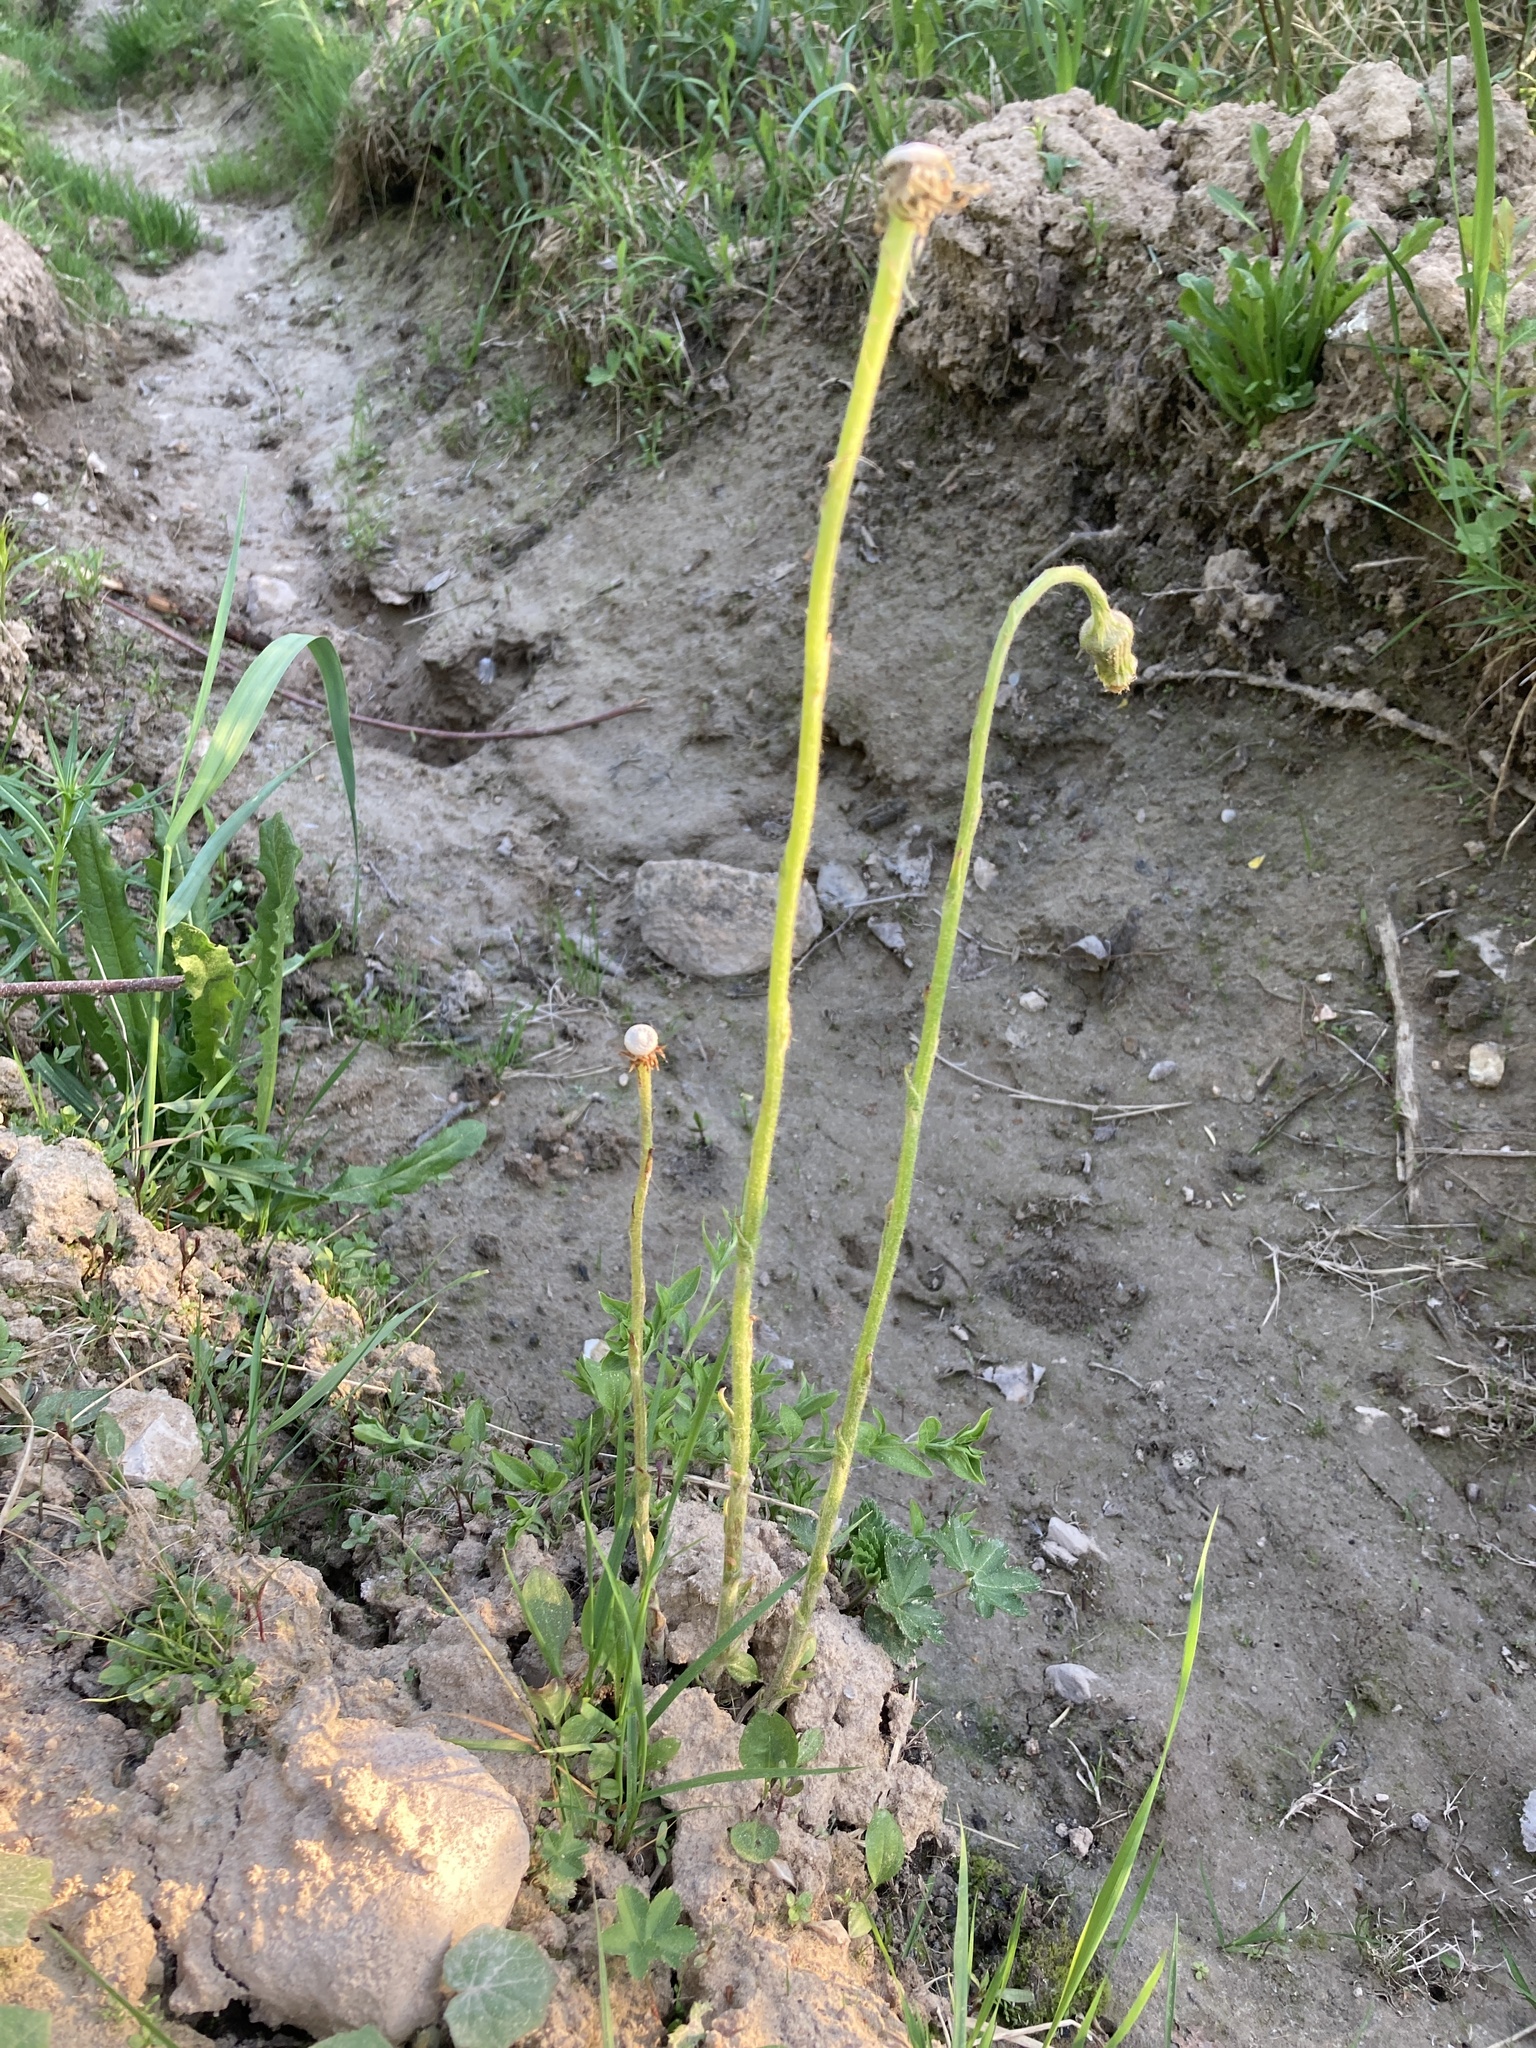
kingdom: Plantae
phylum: Tracheophyta
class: Magnoliopsida
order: Asterales
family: Asteraceae
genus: Tussilago
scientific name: Tussilago farfara
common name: Coltsfoot
